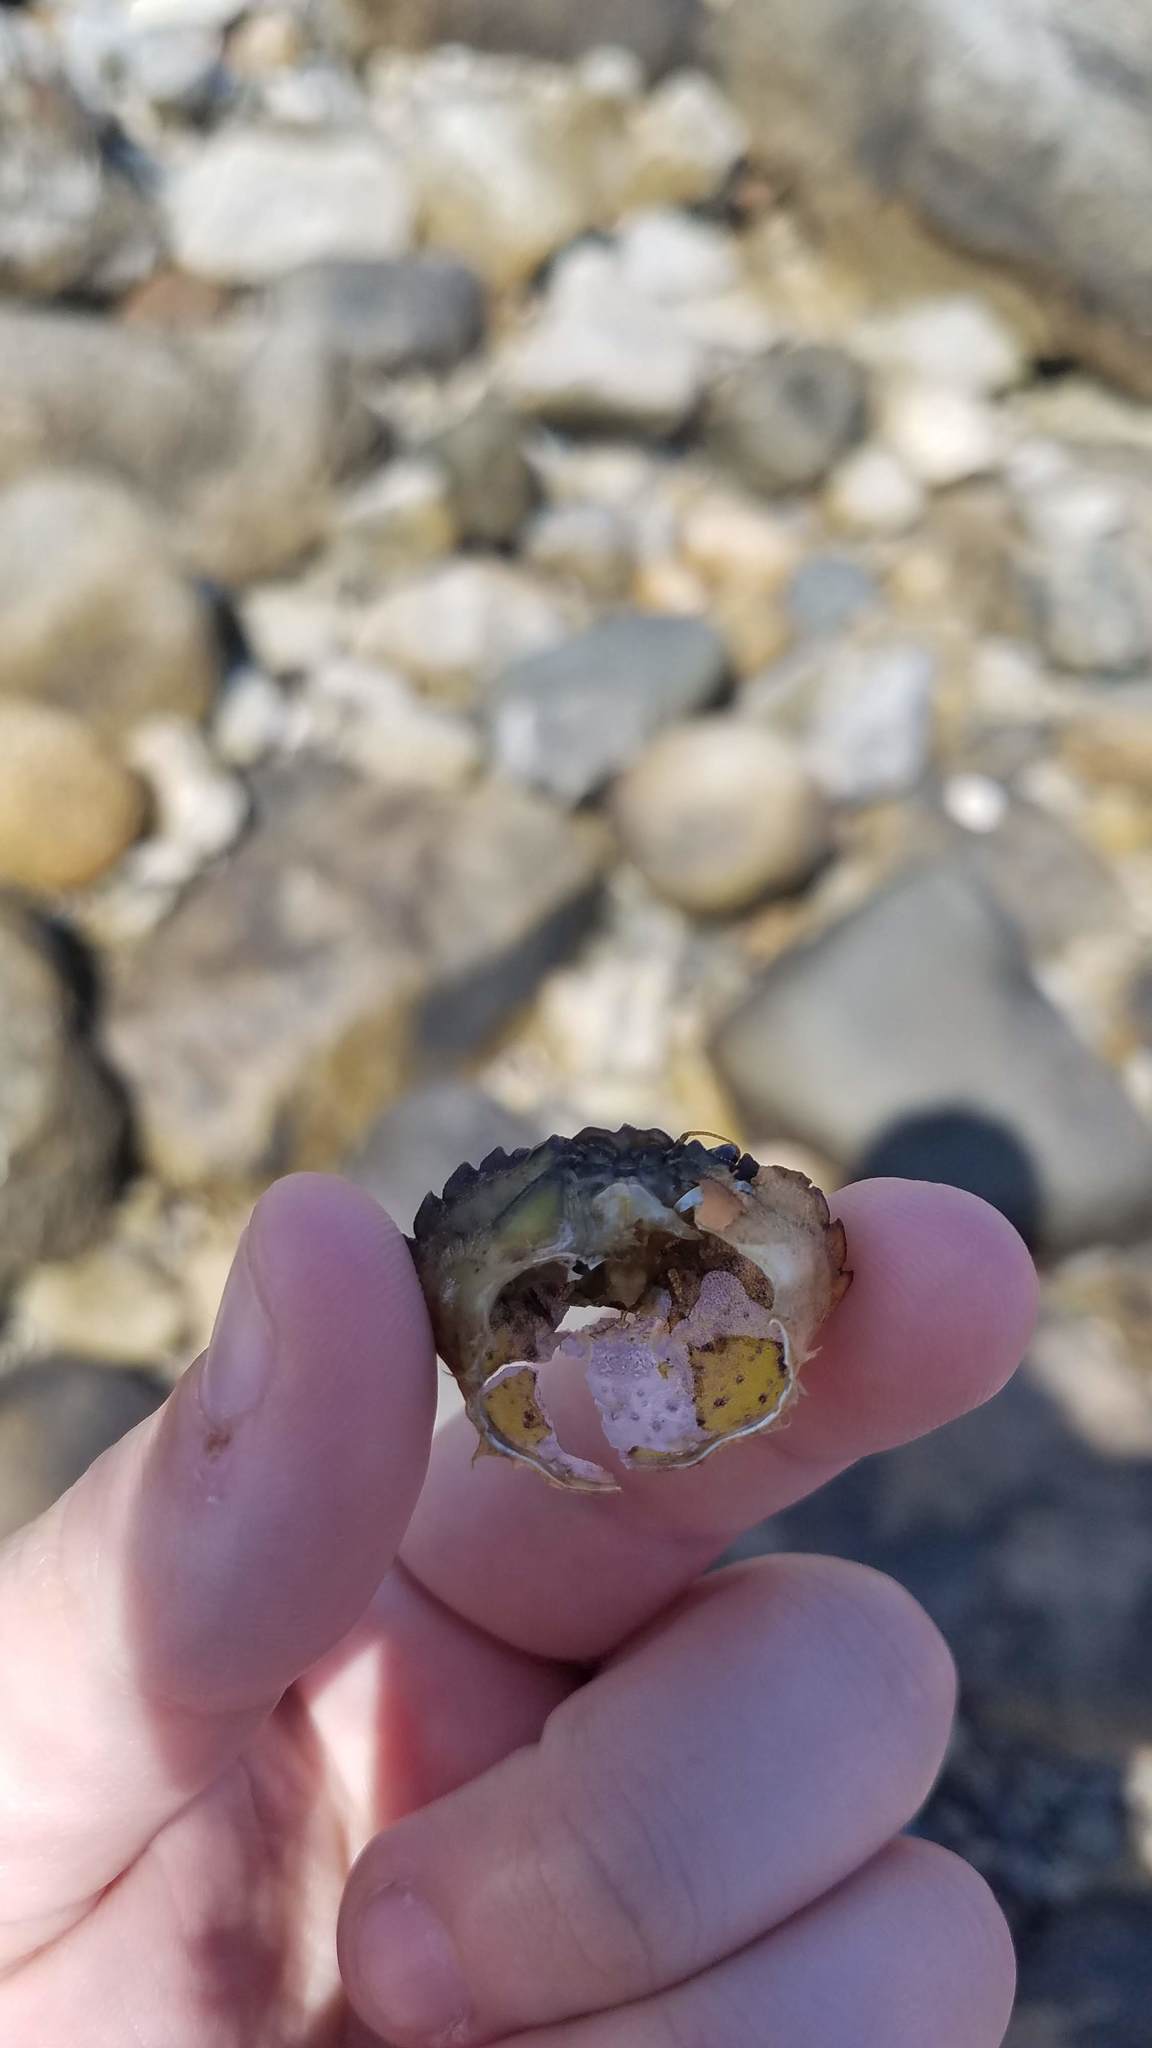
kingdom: Animalia
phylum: Arthropoda
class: Malacostraca
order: Decapoda
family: Carcinidae
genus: Carcinus
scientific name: Carcinus maenas
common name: European green crab
